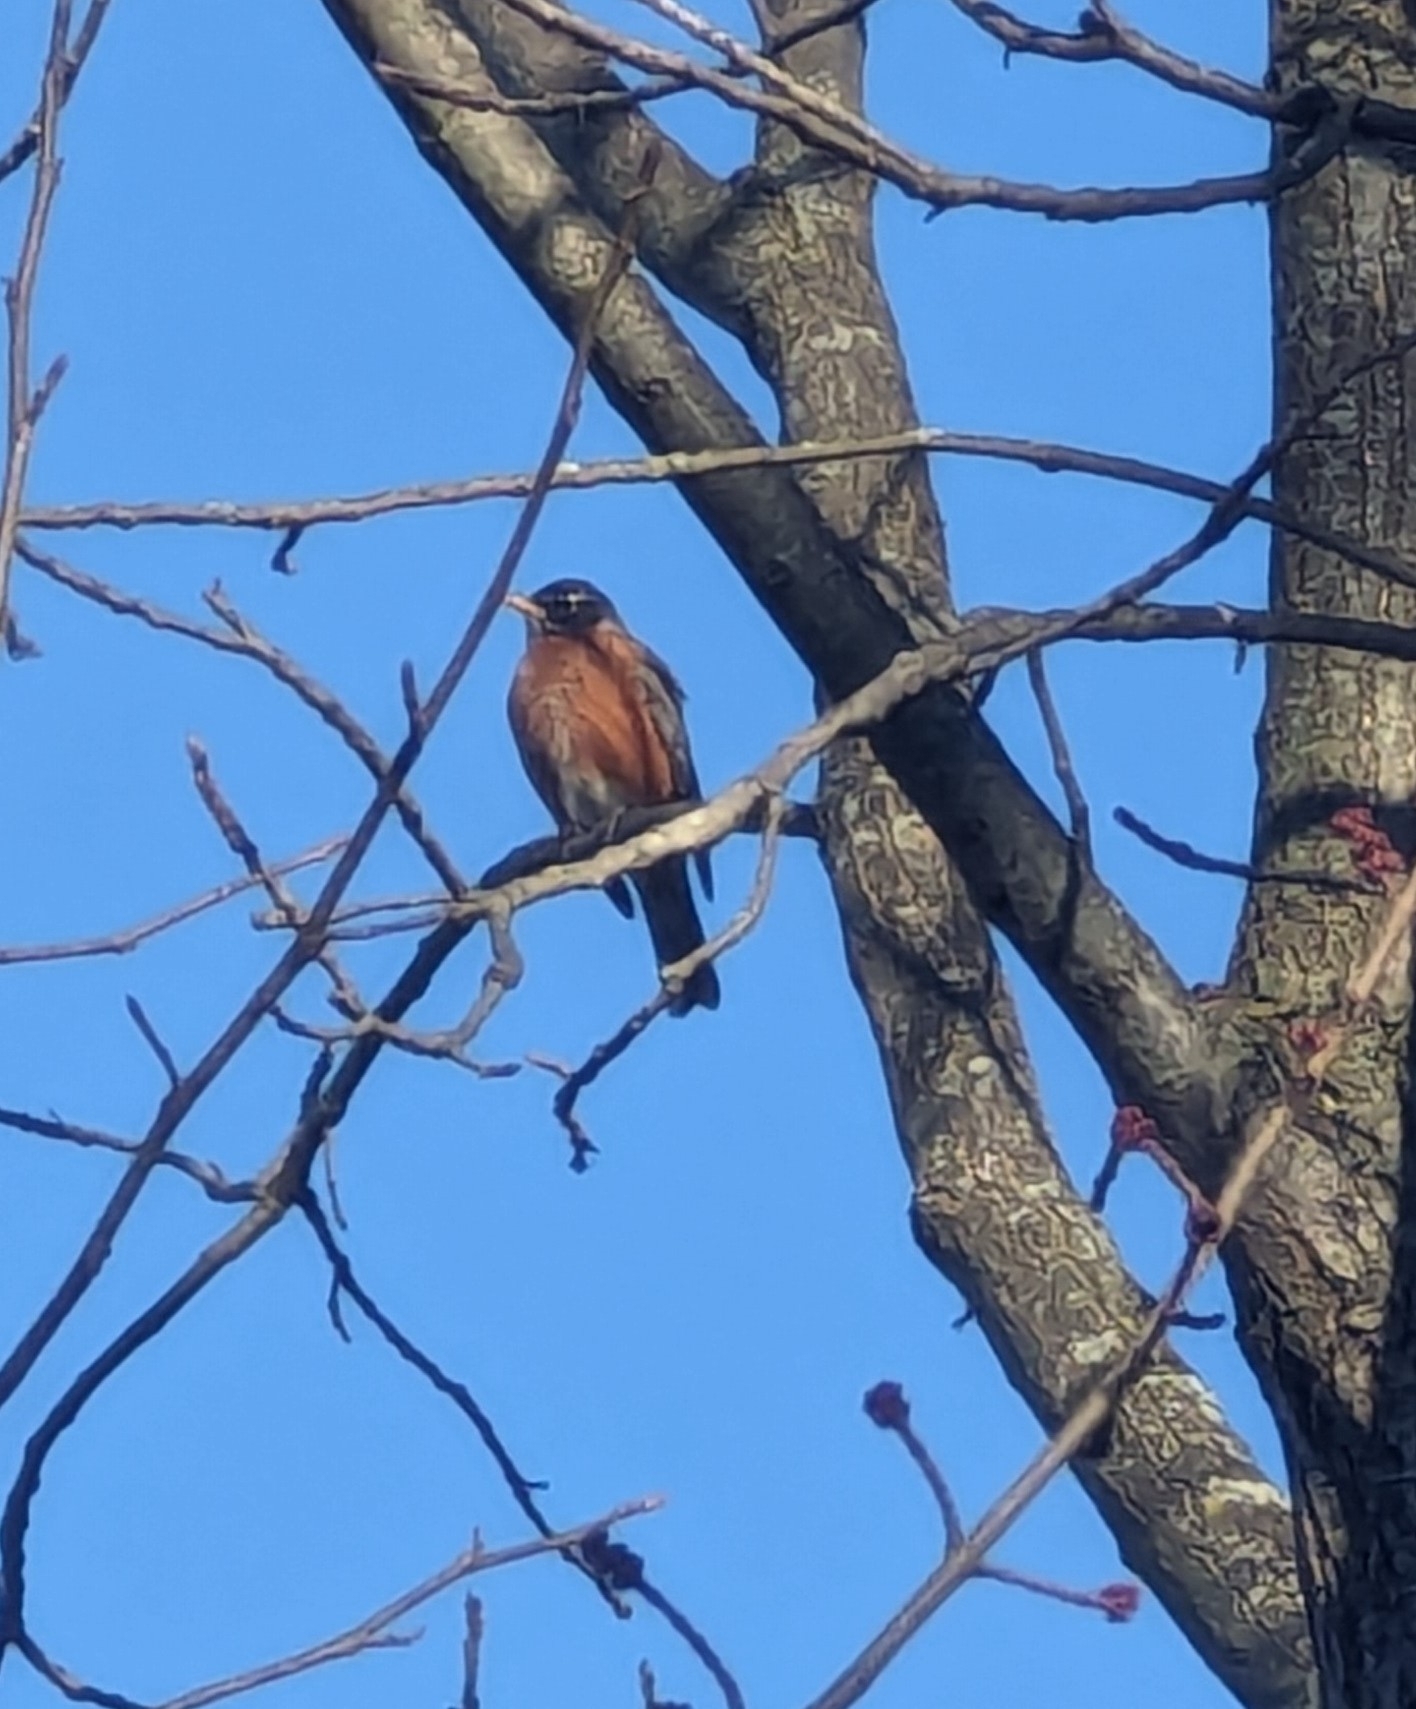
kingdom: Animalia
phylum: Chordata
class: Aves
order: Passeriformes
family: Turdidae
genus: Turdus
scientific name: Turdus migratorius
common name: American robin
